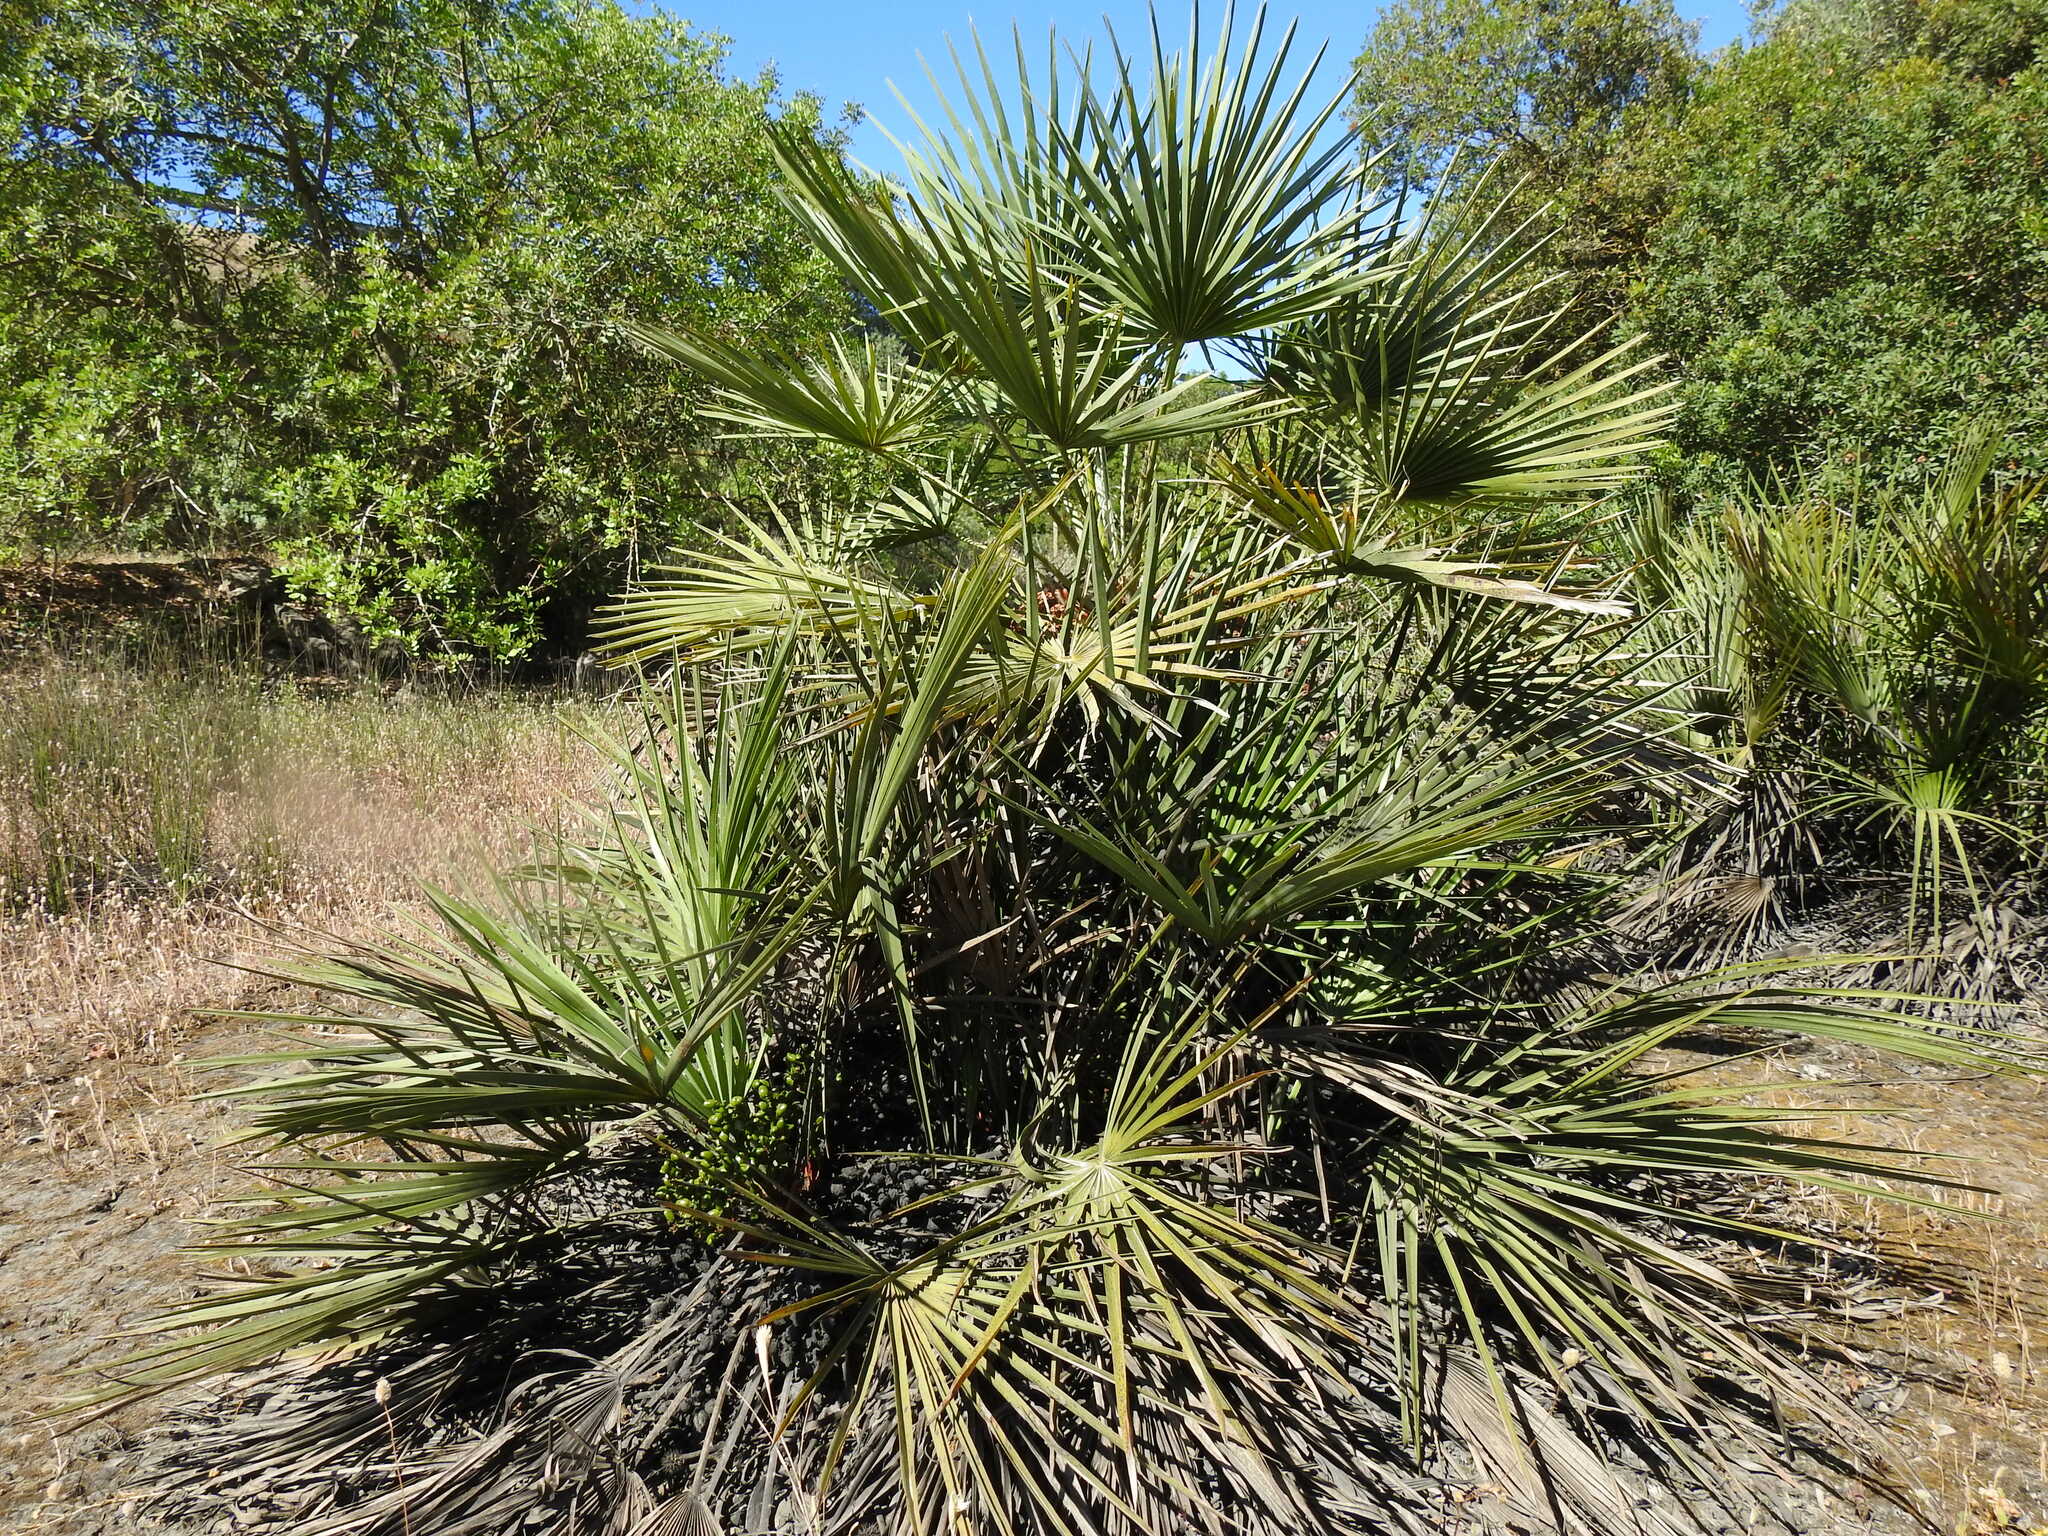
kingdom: Plantae
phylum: Tracheophyta
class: Liliopsida
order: Arecales
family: Arecaceae
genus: Chamaerops
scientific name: Chamaerops humilis
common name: Dwarf fan palm
